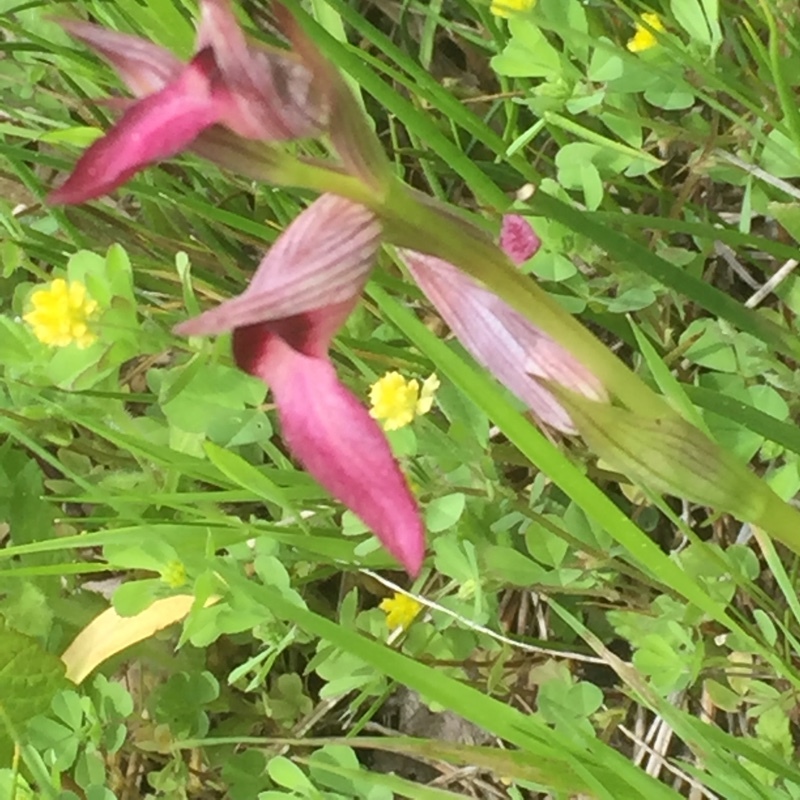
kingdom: Plantae
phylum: Tracheophyta
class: Liliopsida
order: Asparagales
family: Orchidaceae
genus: Serapias
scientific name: Serapias lingua
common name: Tongue-orchid
